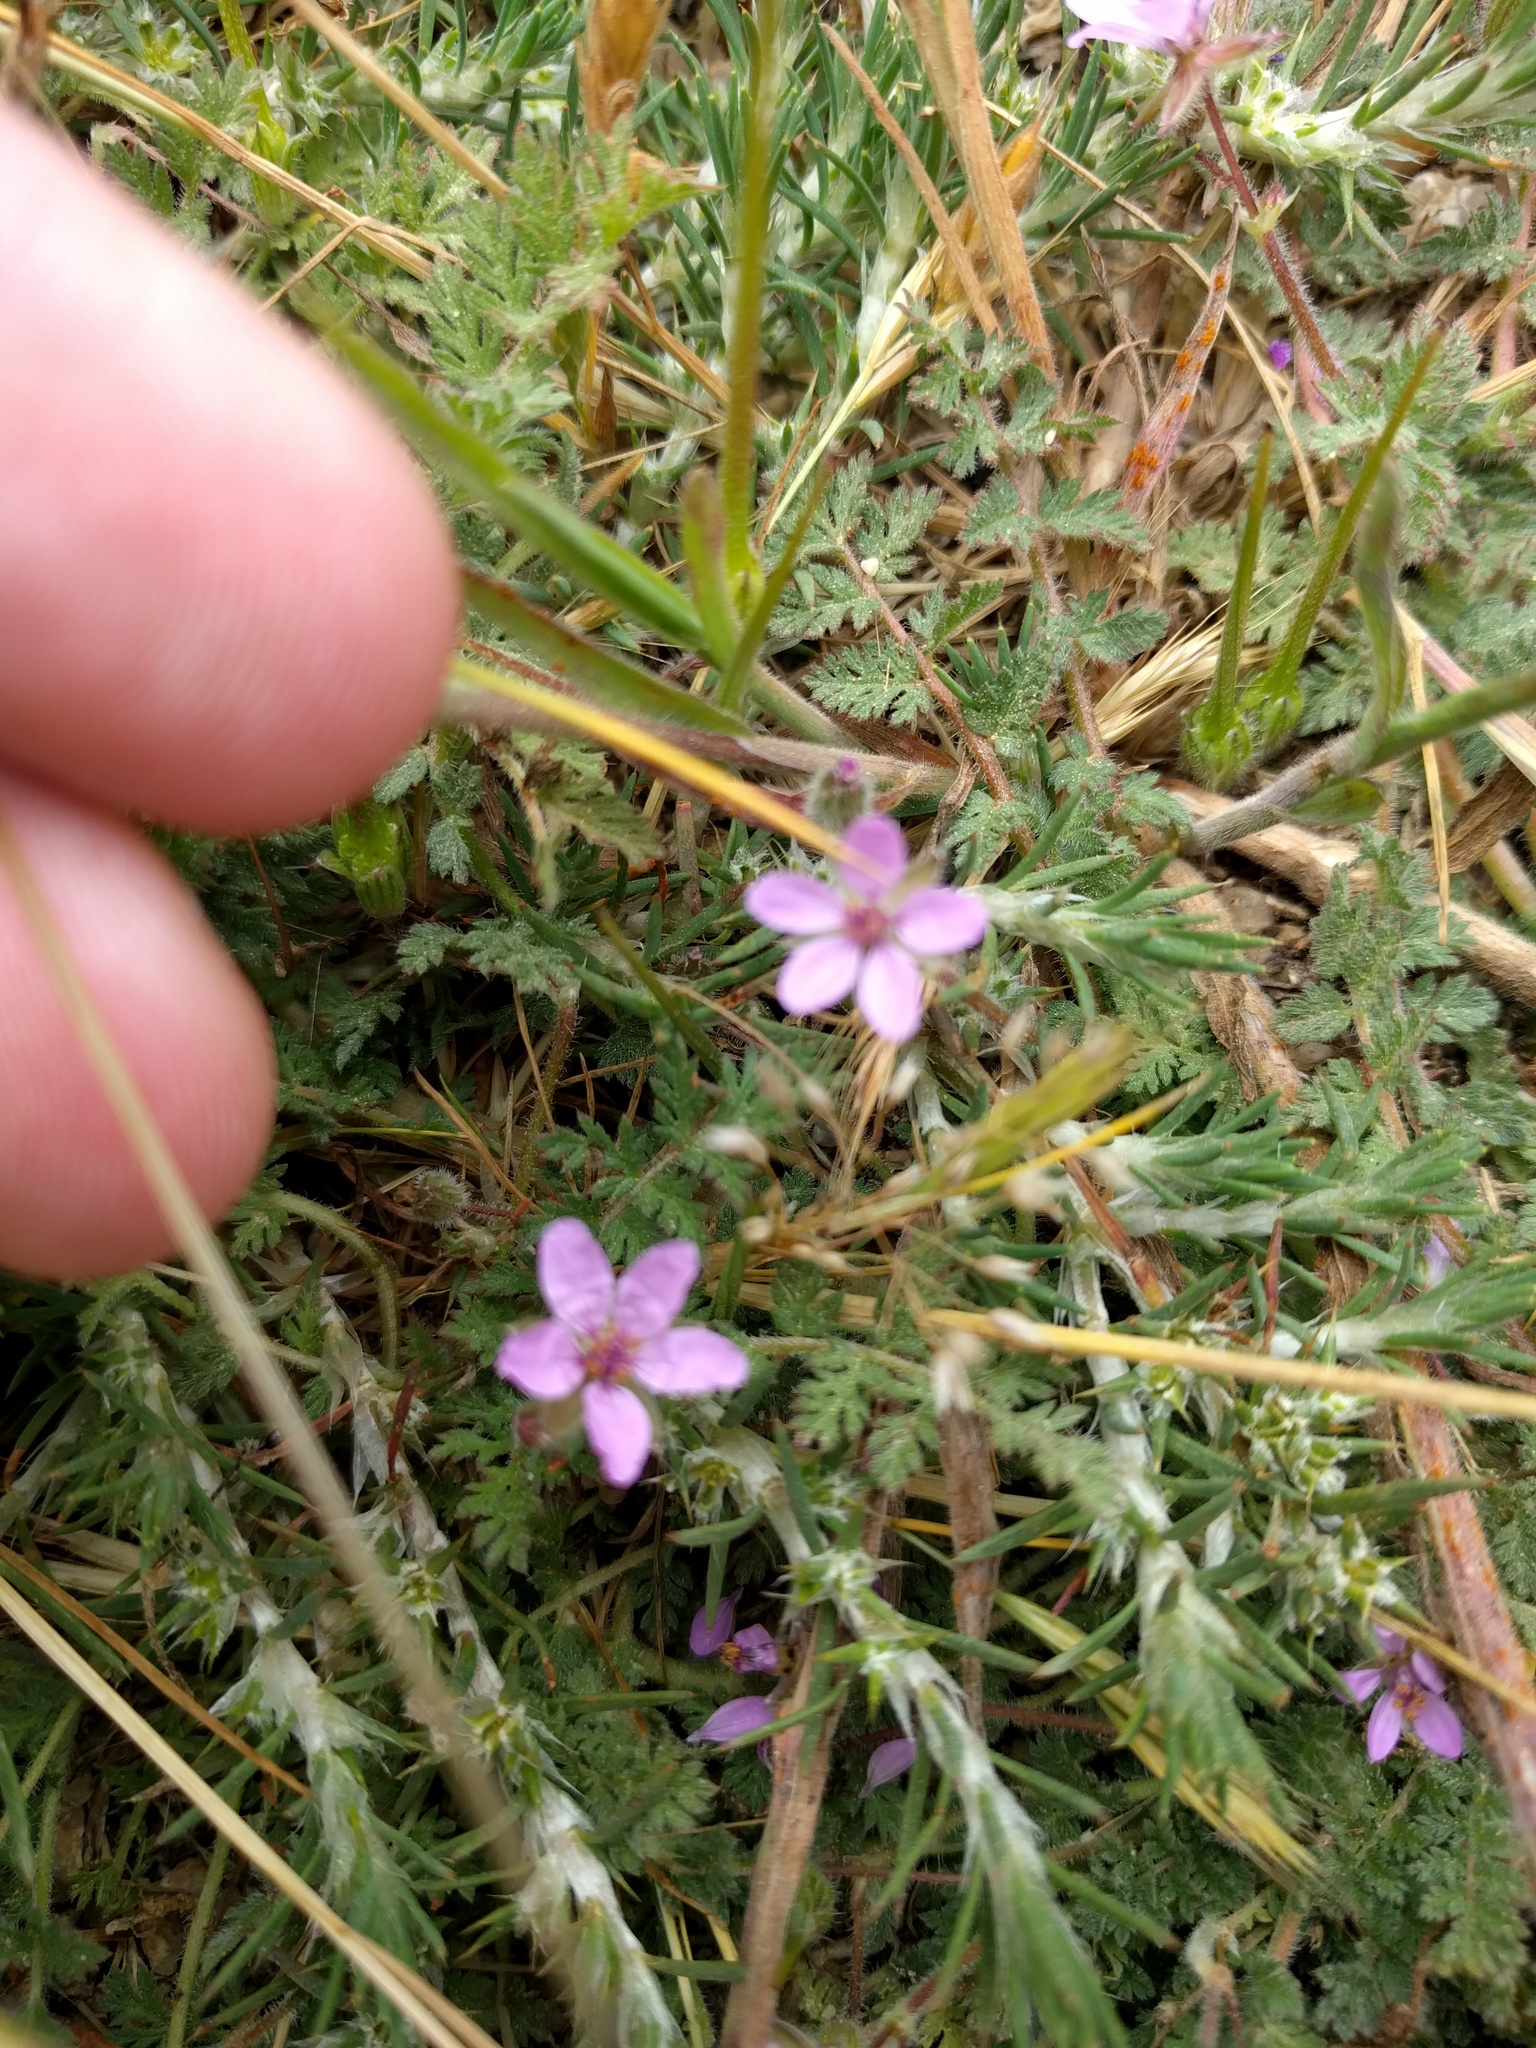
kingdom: Plantae
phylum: Tracheophyta
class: Magnoliopsida
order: Geraniales
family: Geraniaceae
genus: Erodium
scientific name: Erodium cicutarium
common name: Common stork's-bill
